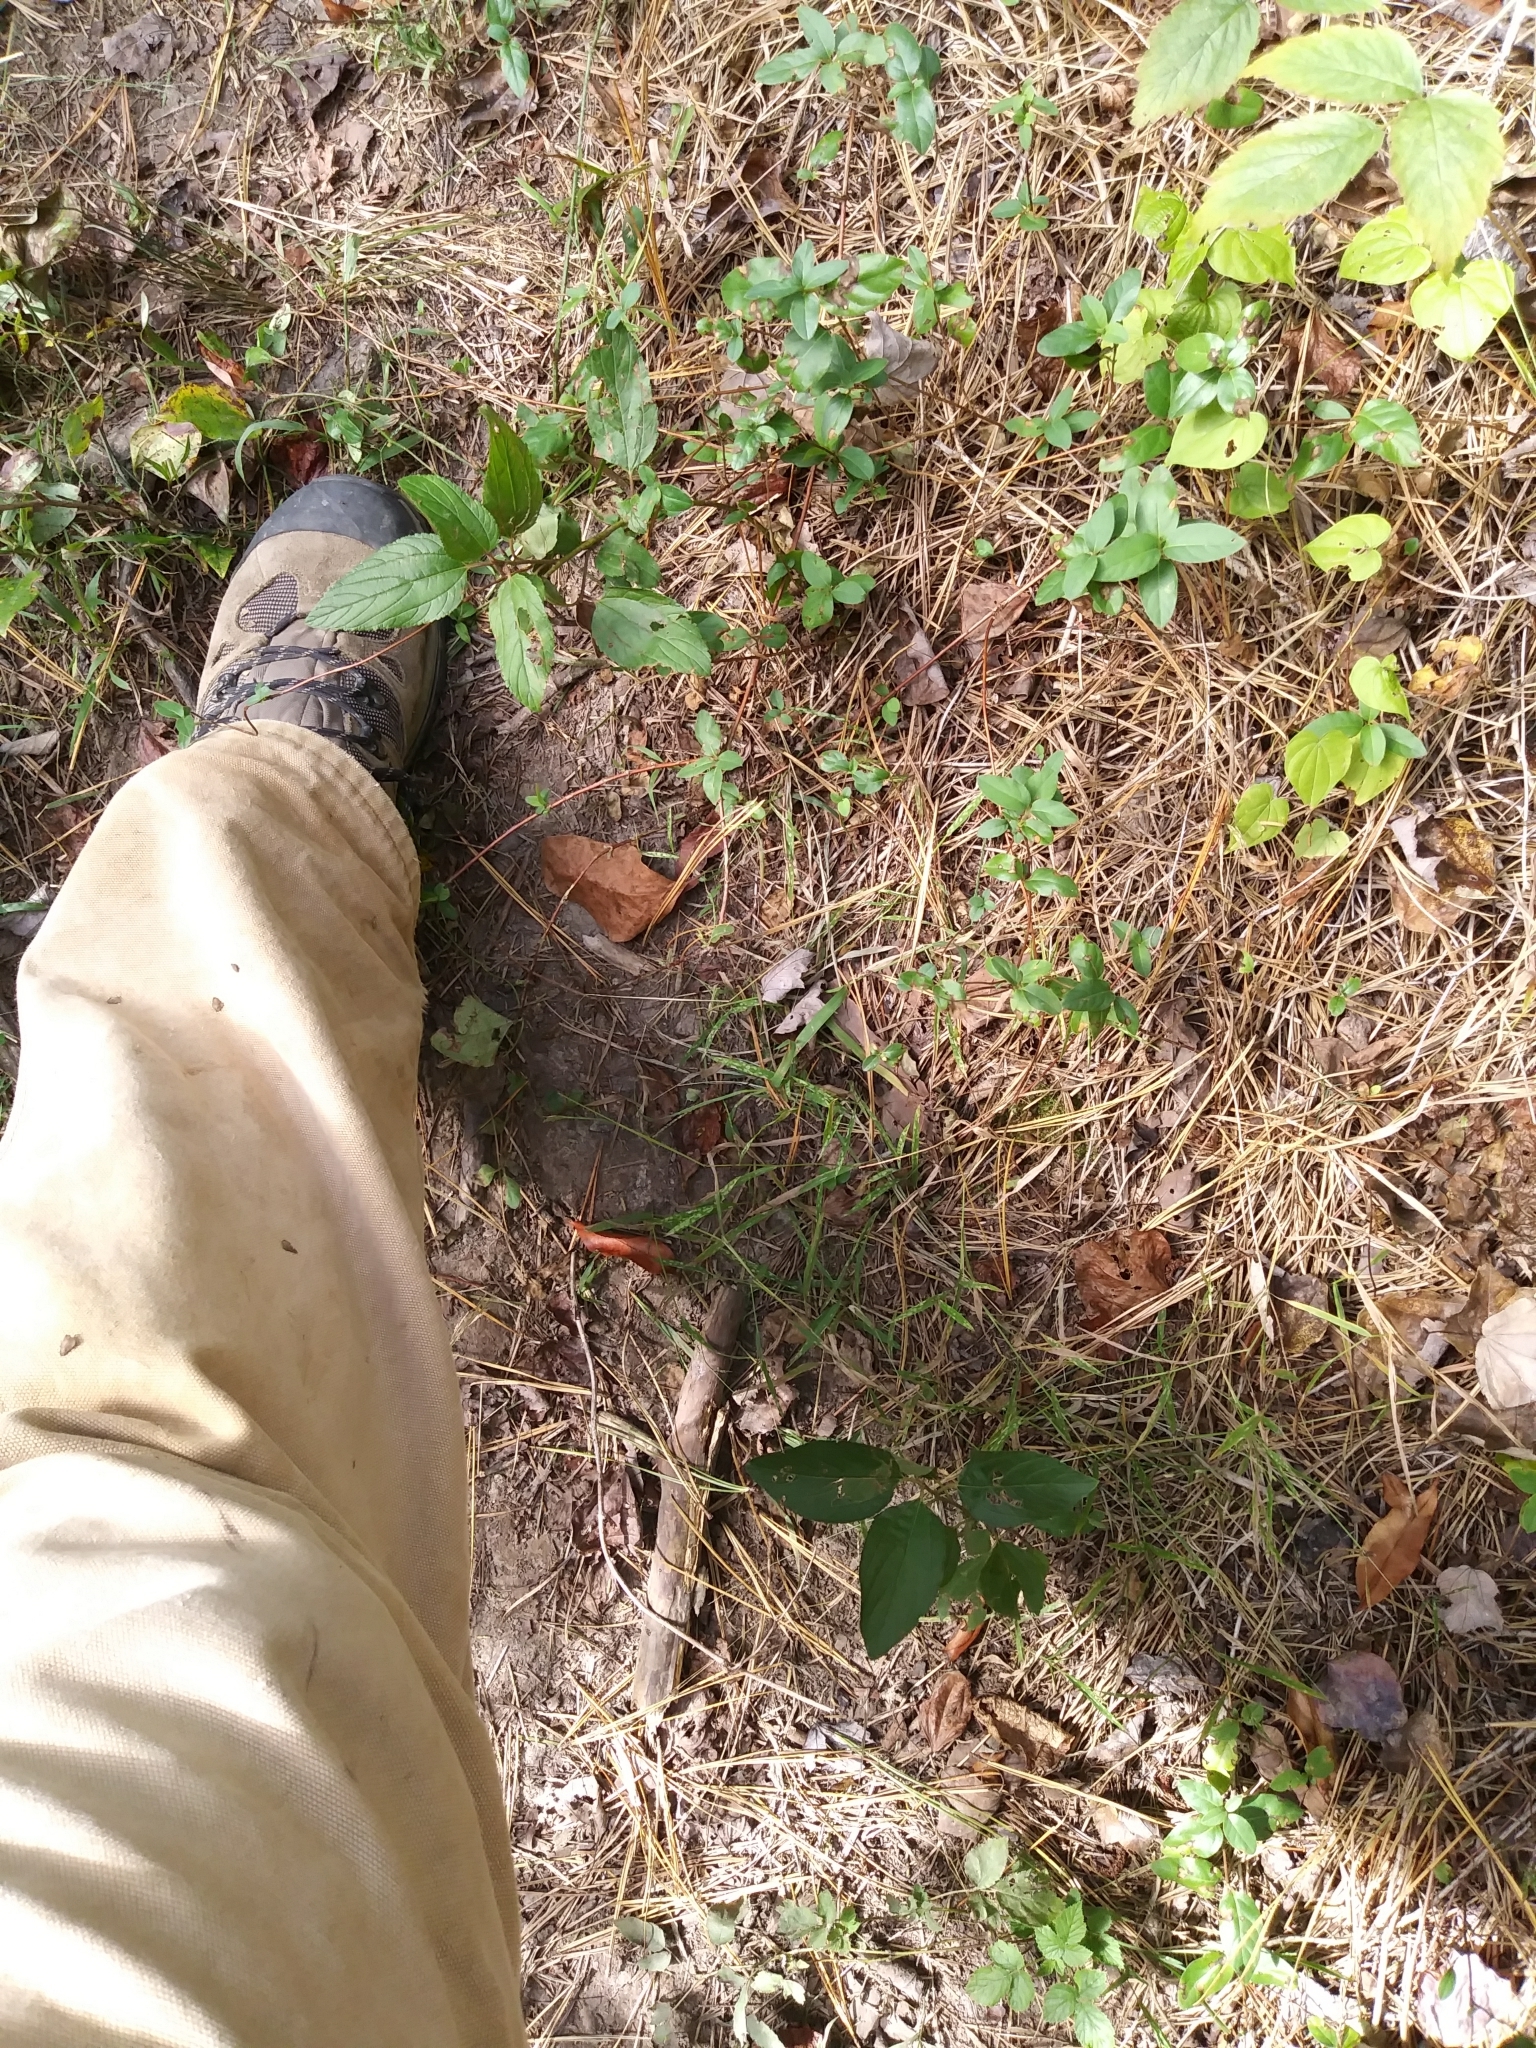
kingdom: Plantae
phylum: Tracheophyta
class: Magnoliopsida
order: Rosales
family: Rhamnaceae
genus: Ceanothus
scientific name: Ceanothus americanus
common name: Redroot
